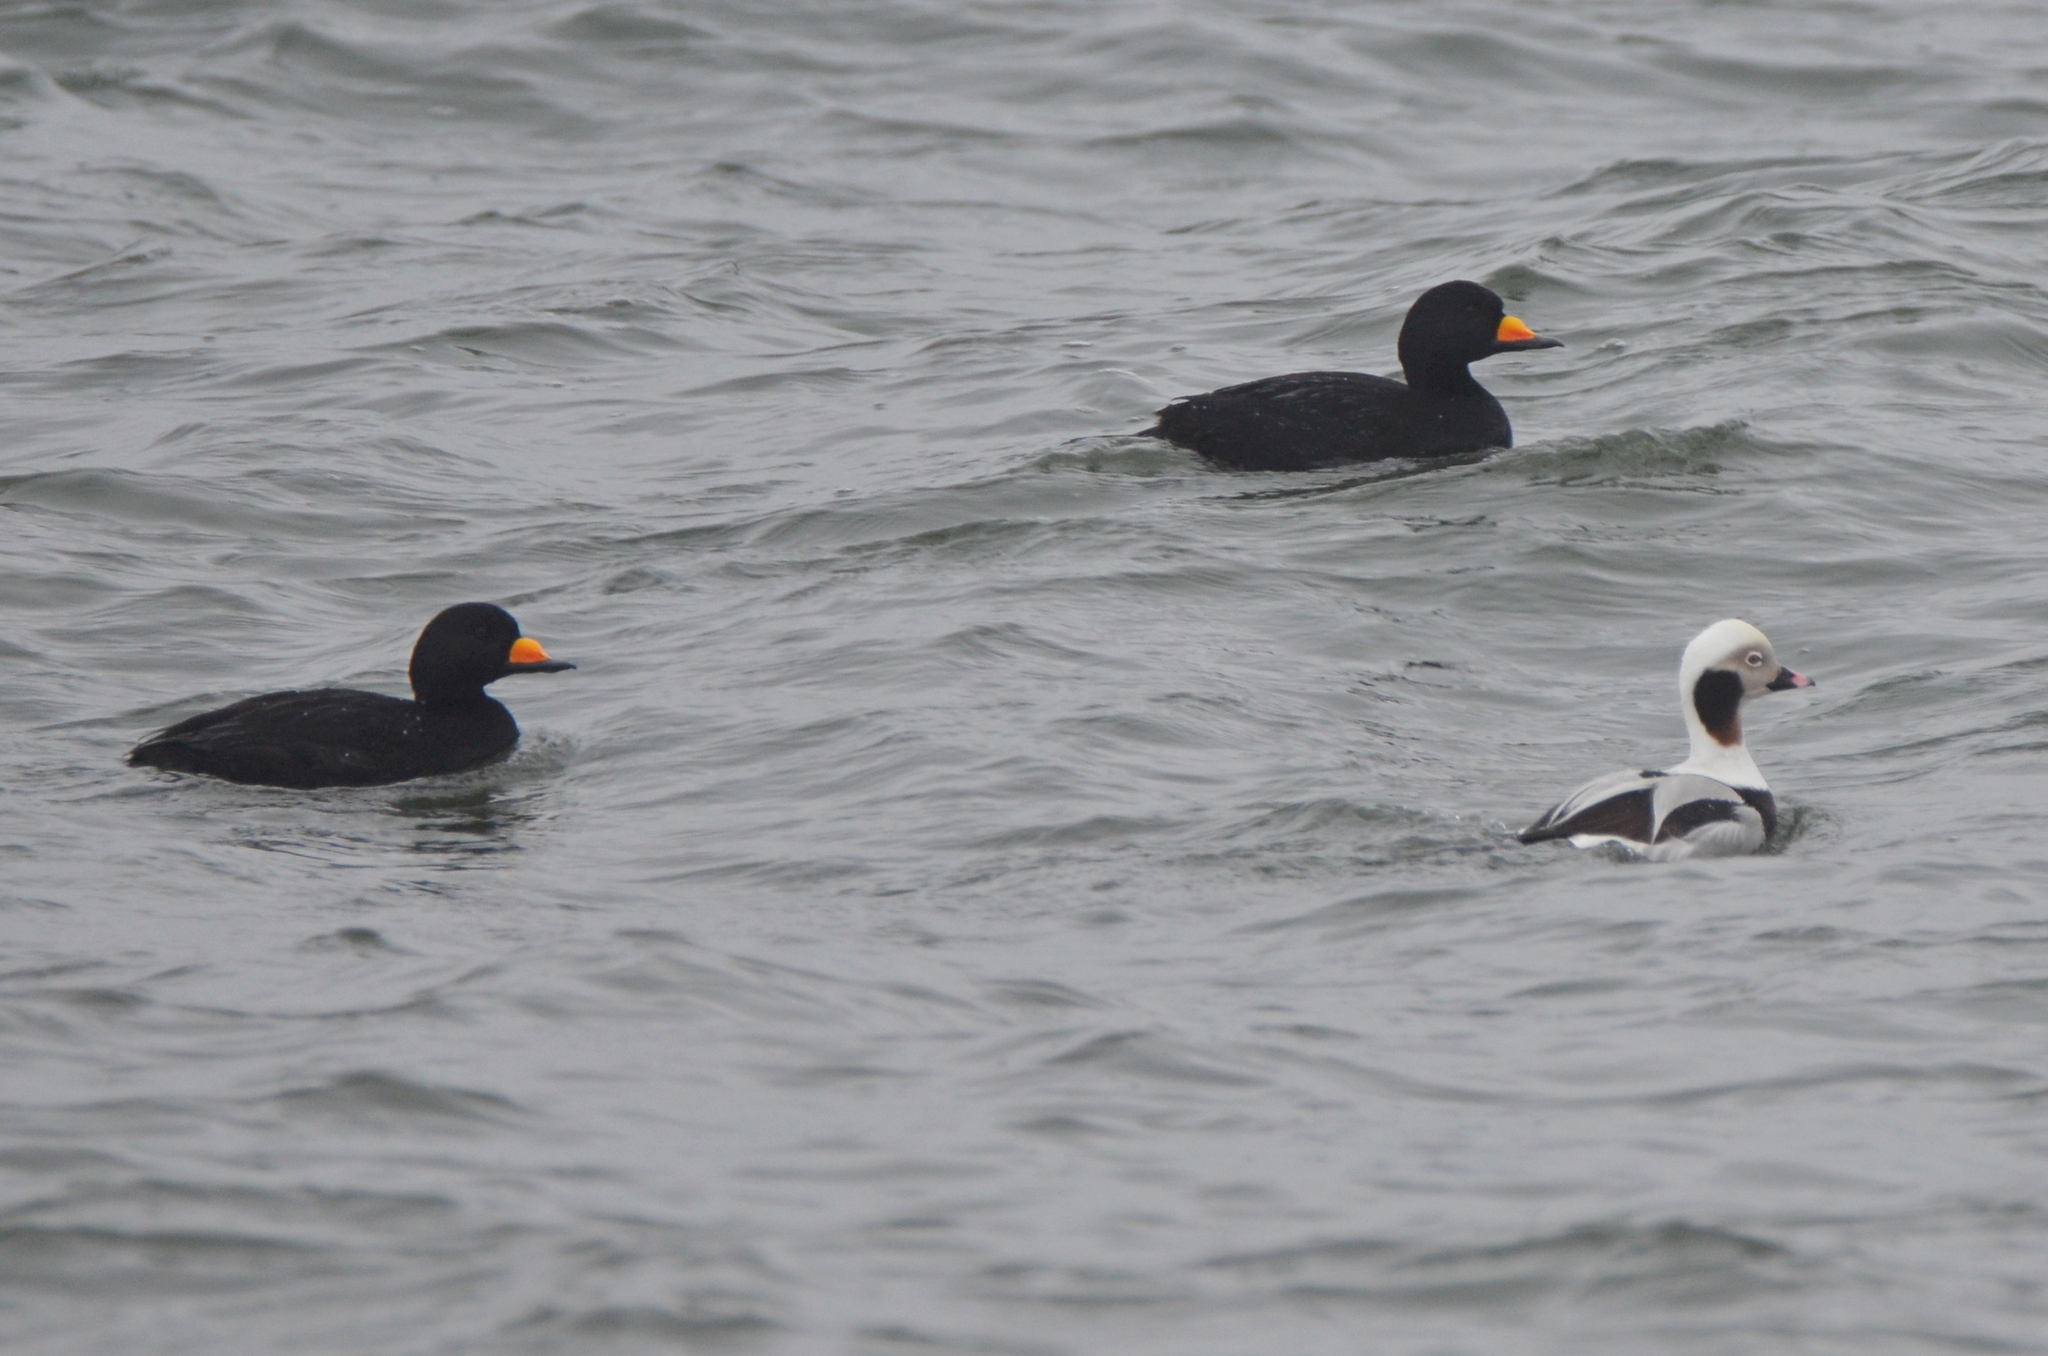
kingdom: Animalia
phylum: Chordata
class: Aves
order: Anseriformes
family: Anatidae
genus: Melanitta
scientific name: Melanitta americana
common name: Black scoter
